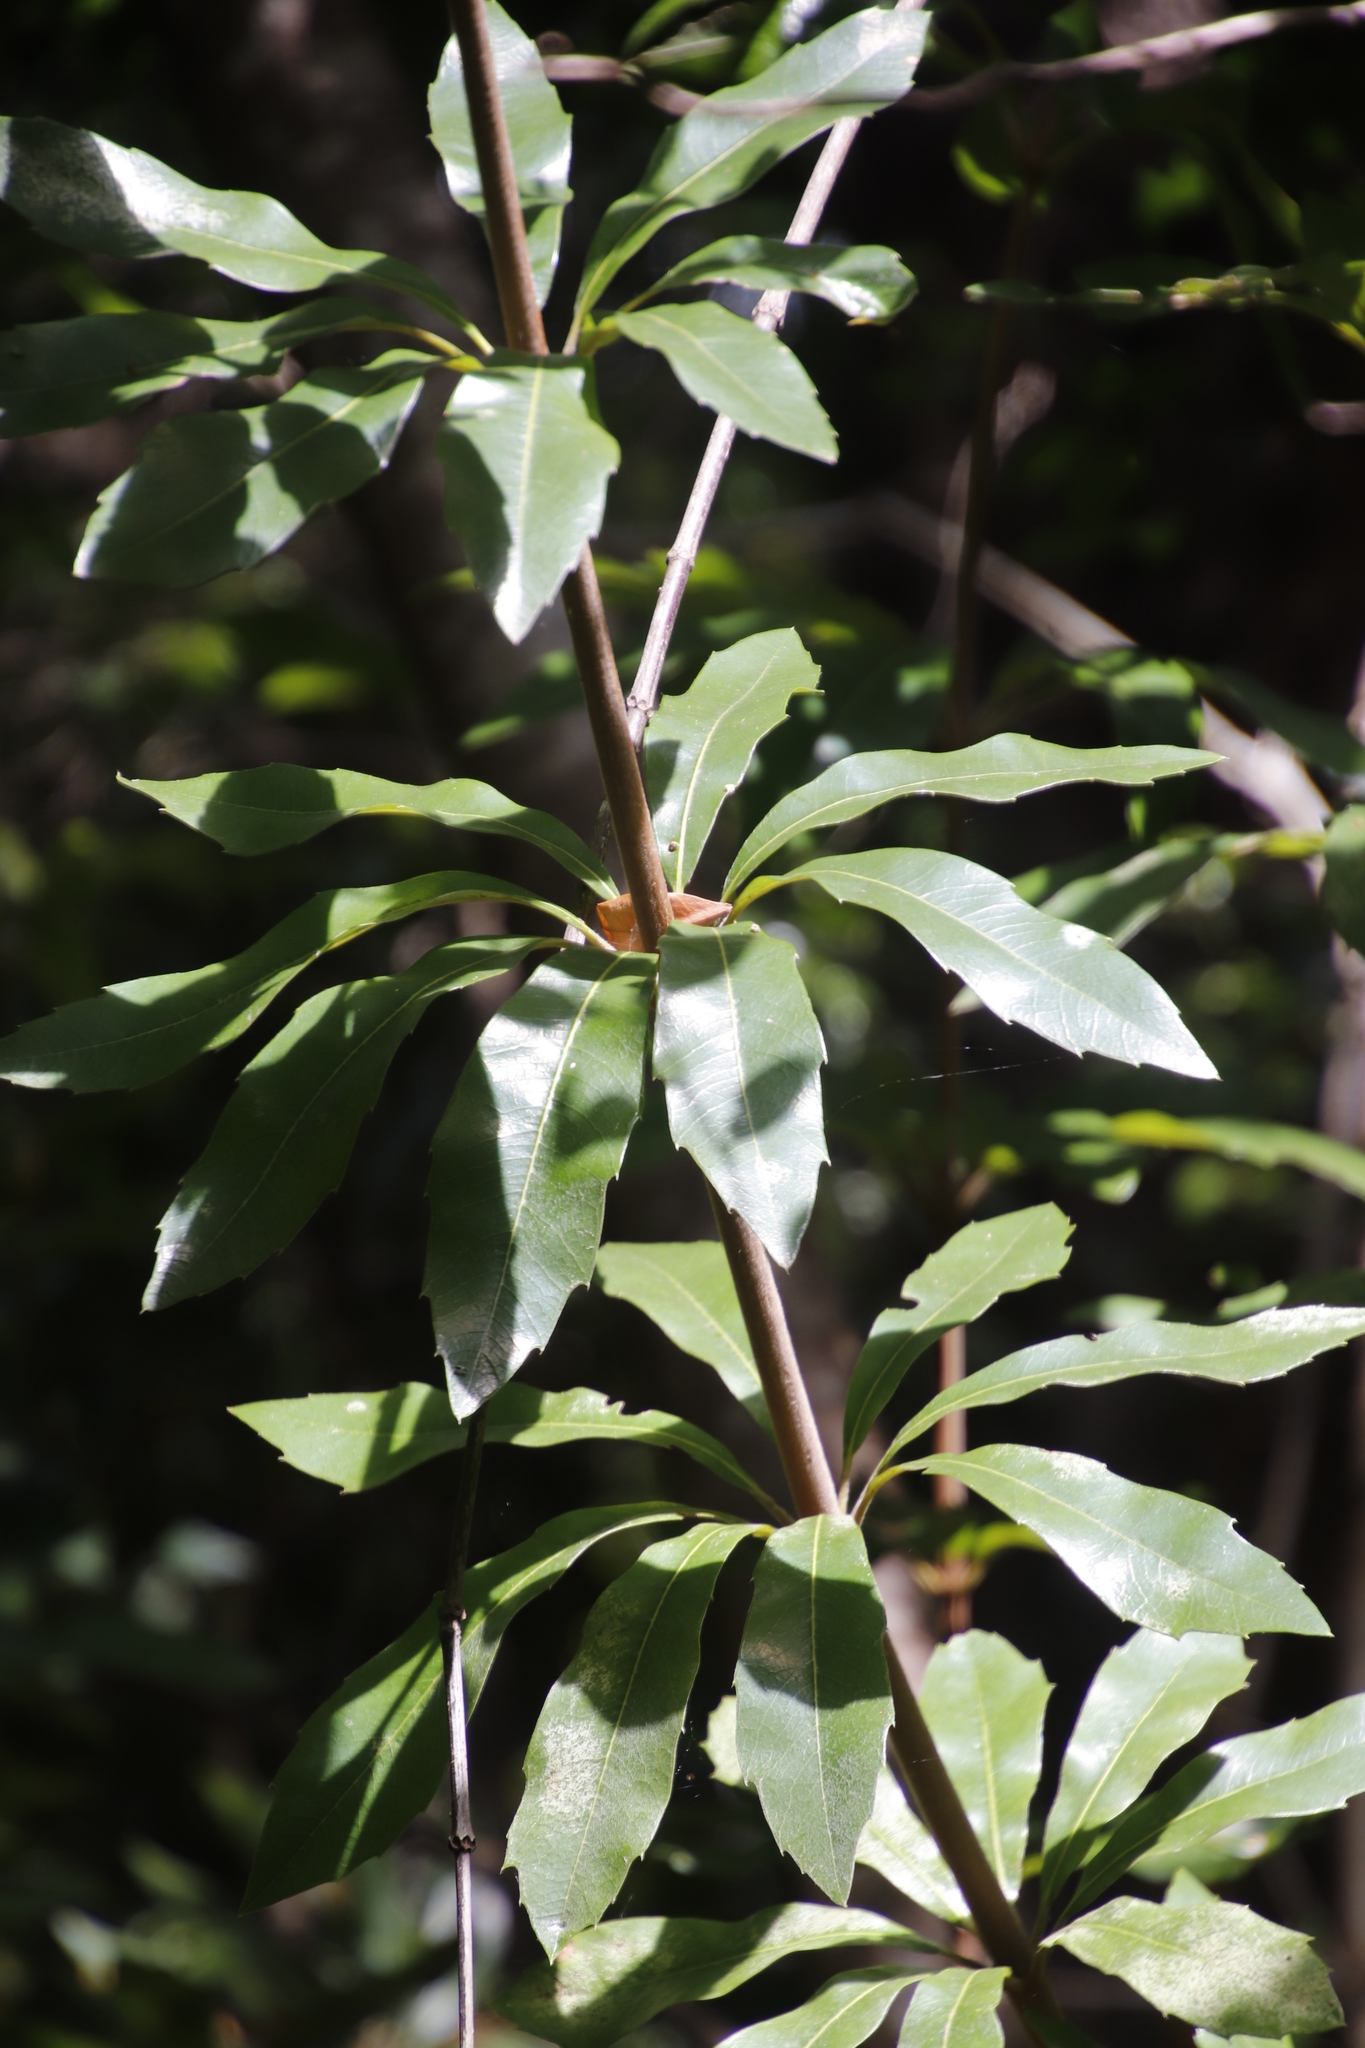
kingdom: Plantae
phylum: Tracheophyta
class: Magnoliopsida
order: Proteales
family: Proteaceae
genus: Brabejum
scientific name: Brabejum stellatifolium
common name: Wild almond
